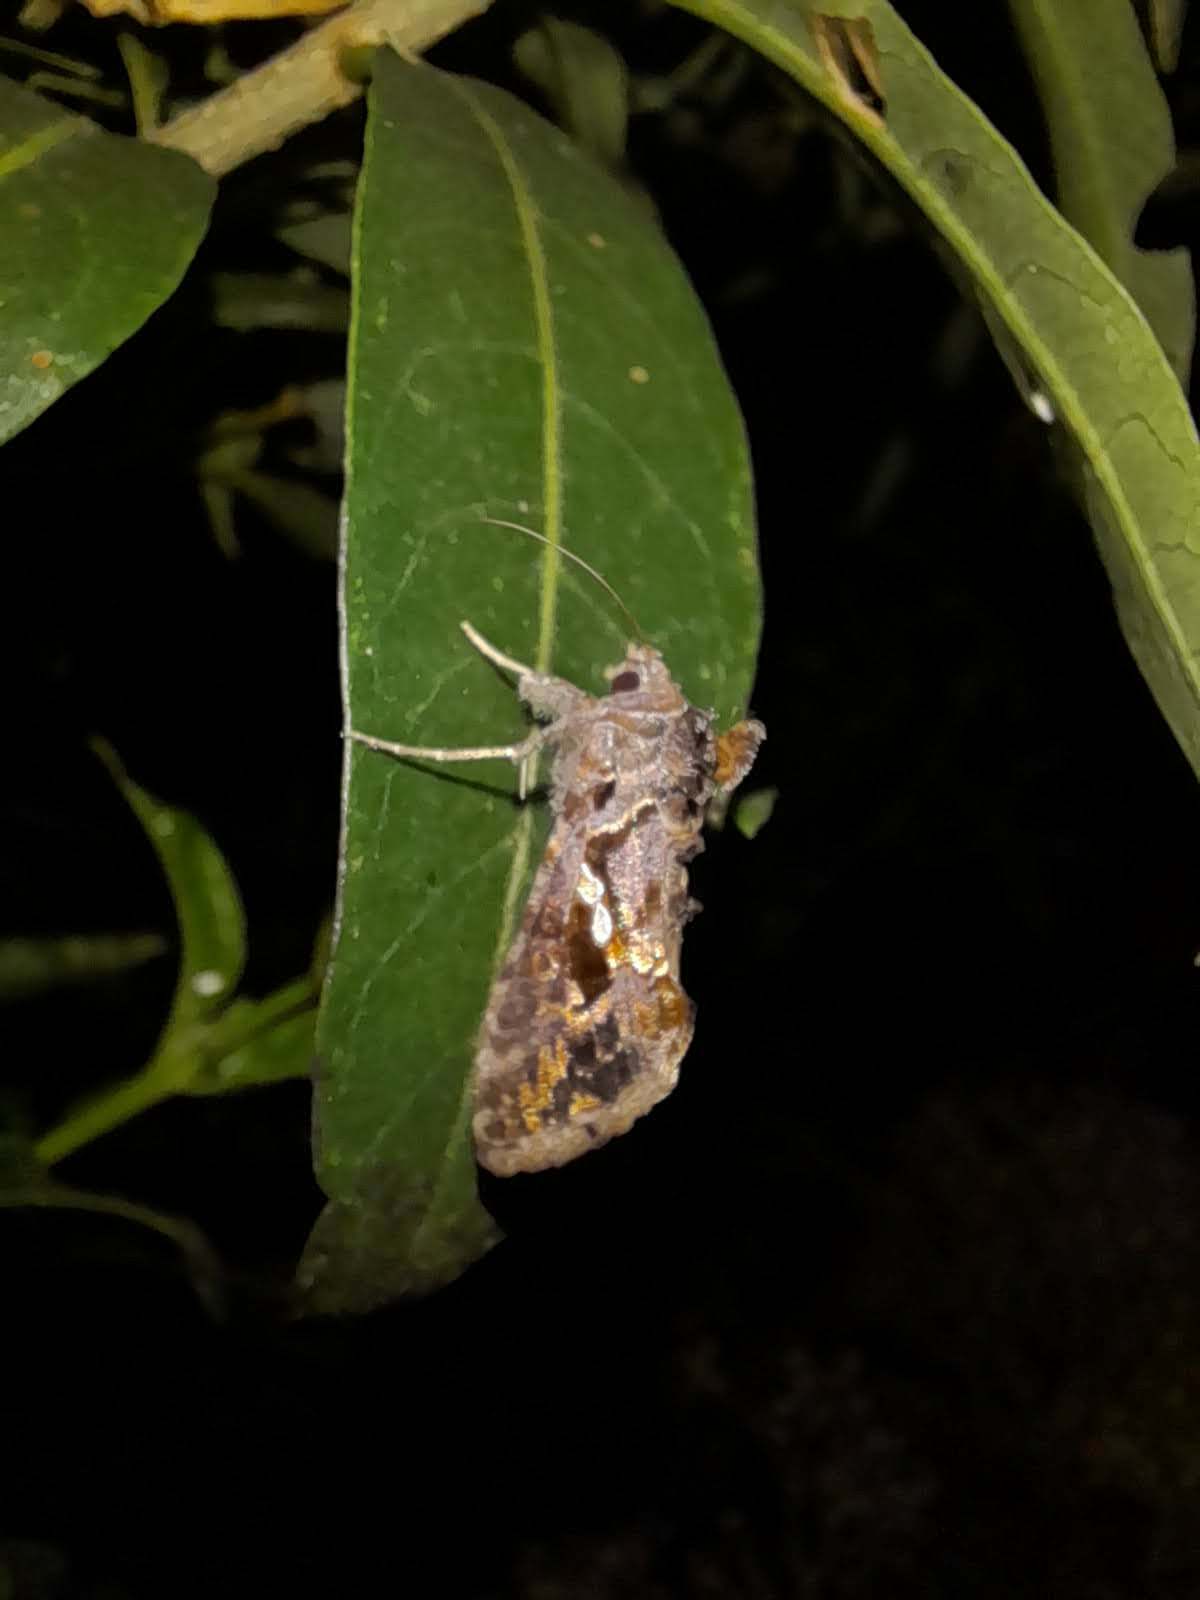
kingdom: Animalia
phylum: Arthropoda
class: Insecta
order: Lepidoptera
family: Noctuidae
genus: Chrysodeixis
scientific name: Chrysodeixis includens
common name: Cutworm moth
